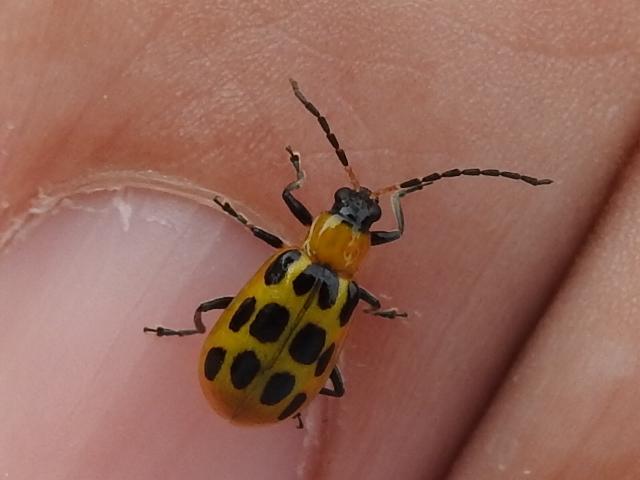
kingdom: Animalia
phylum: Arthropoda
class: Insecta
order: Coleoptera
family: Chrysomelidae
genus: Diabrotica
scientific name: Diabrotica undecimpunctata
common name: Spotted cucumber beetle
